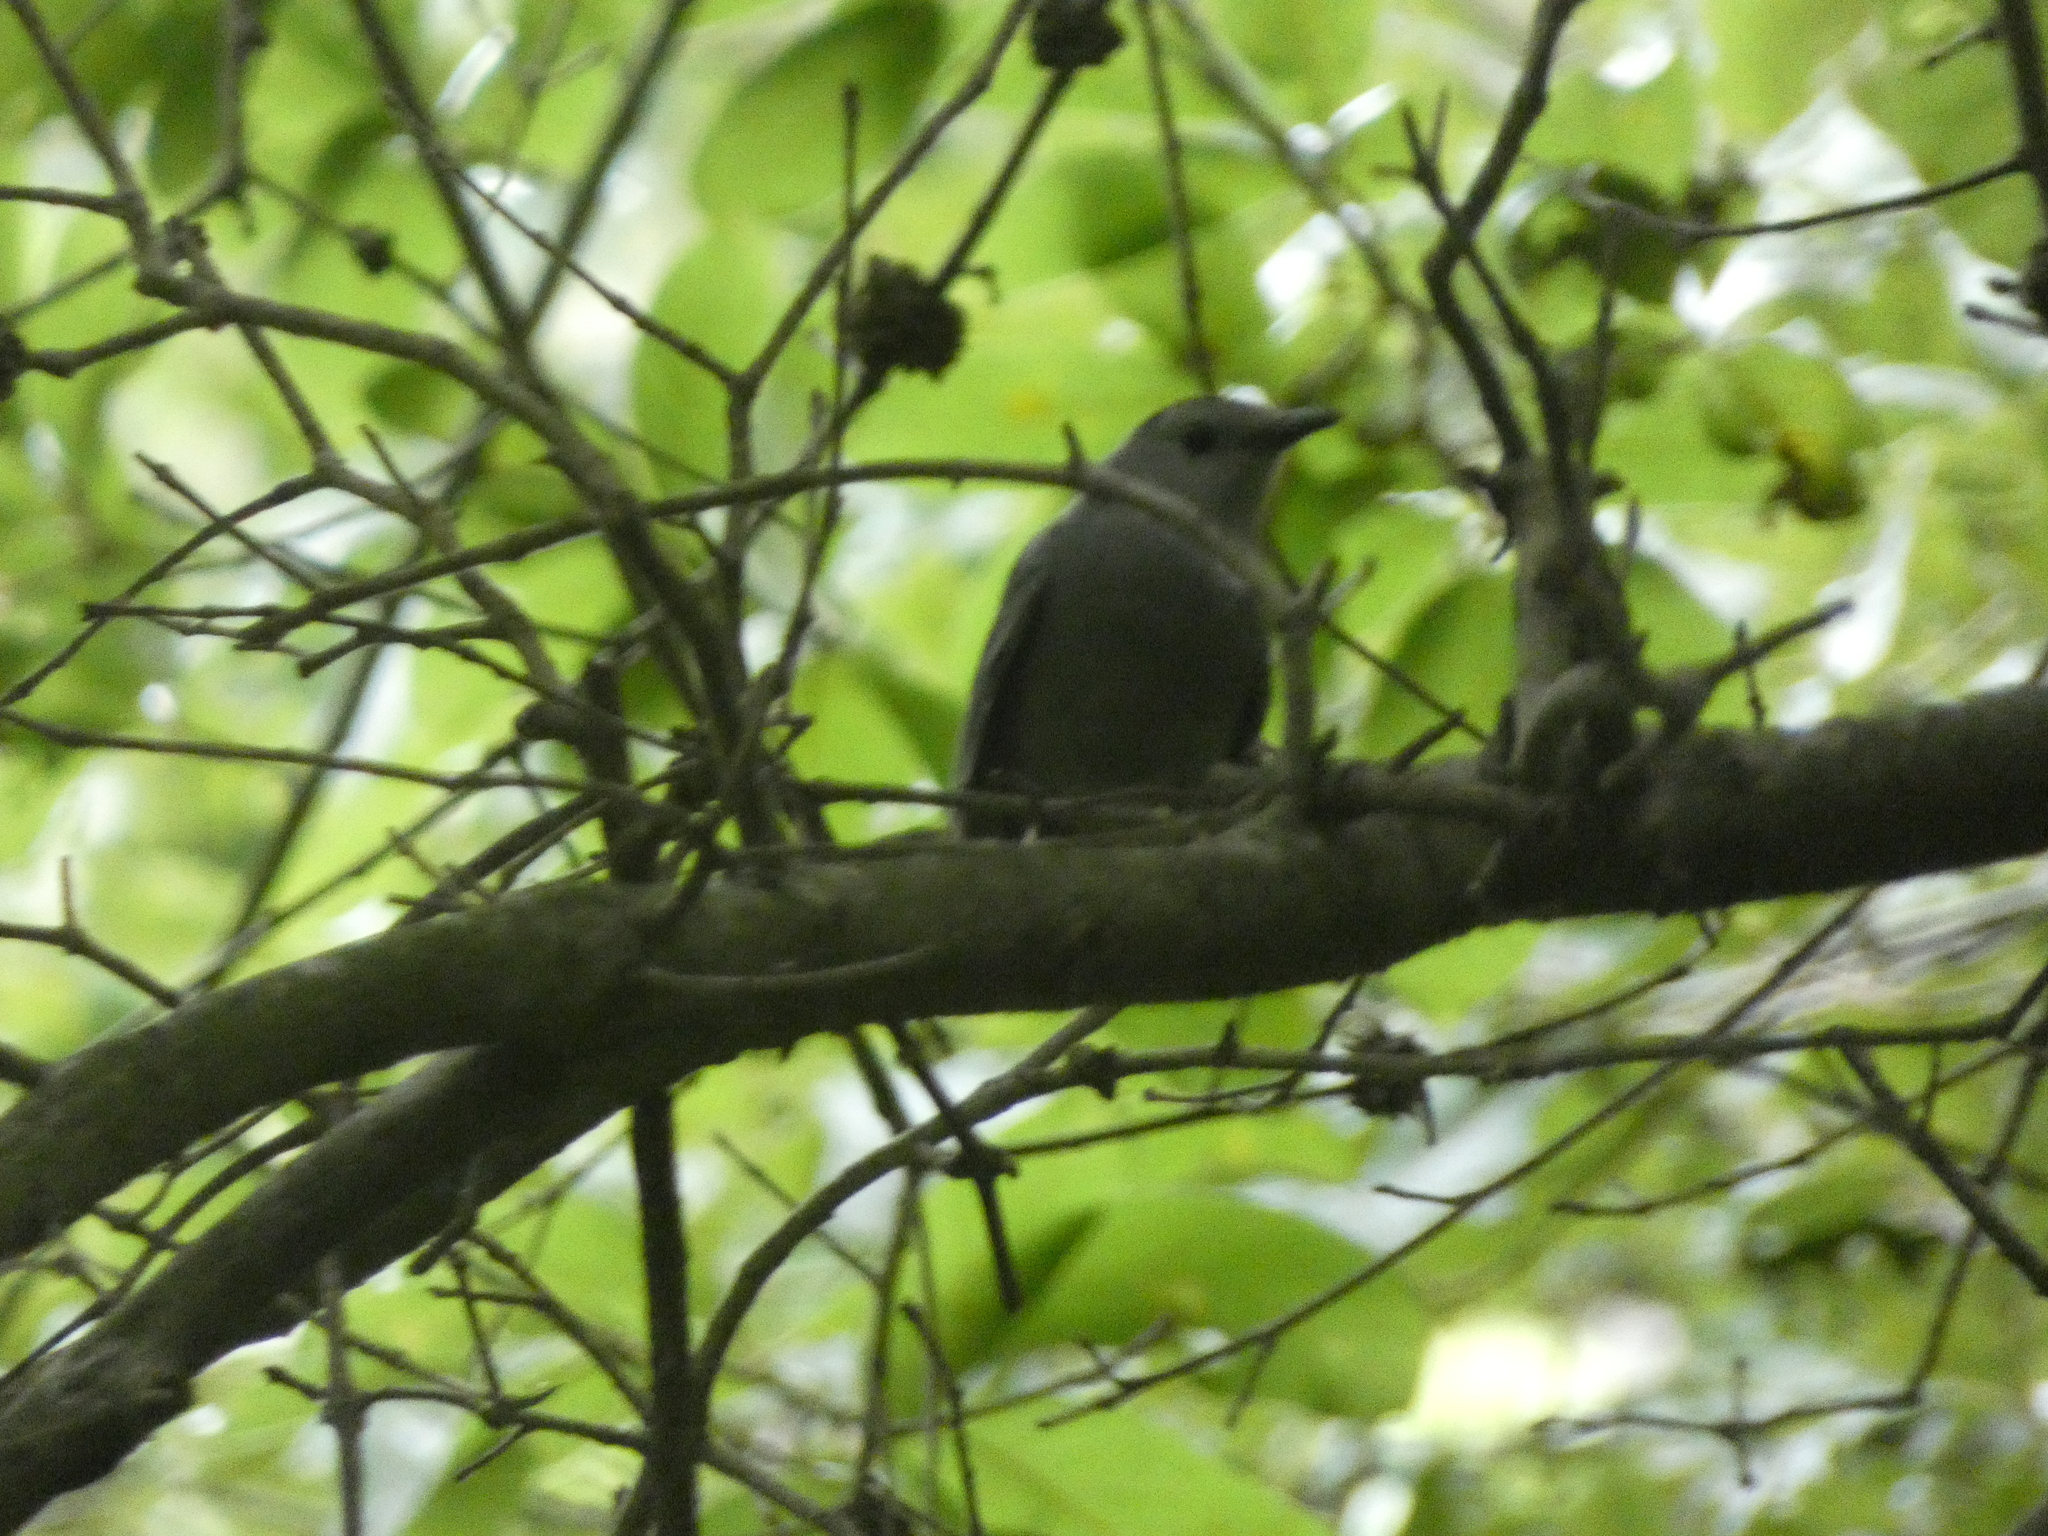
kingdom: Animalia
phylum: Chordata
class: Aves
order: Passeriformes
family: Mimidae
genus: Dumetella
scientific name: Dumetella carolinensis
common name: Gray catbird
